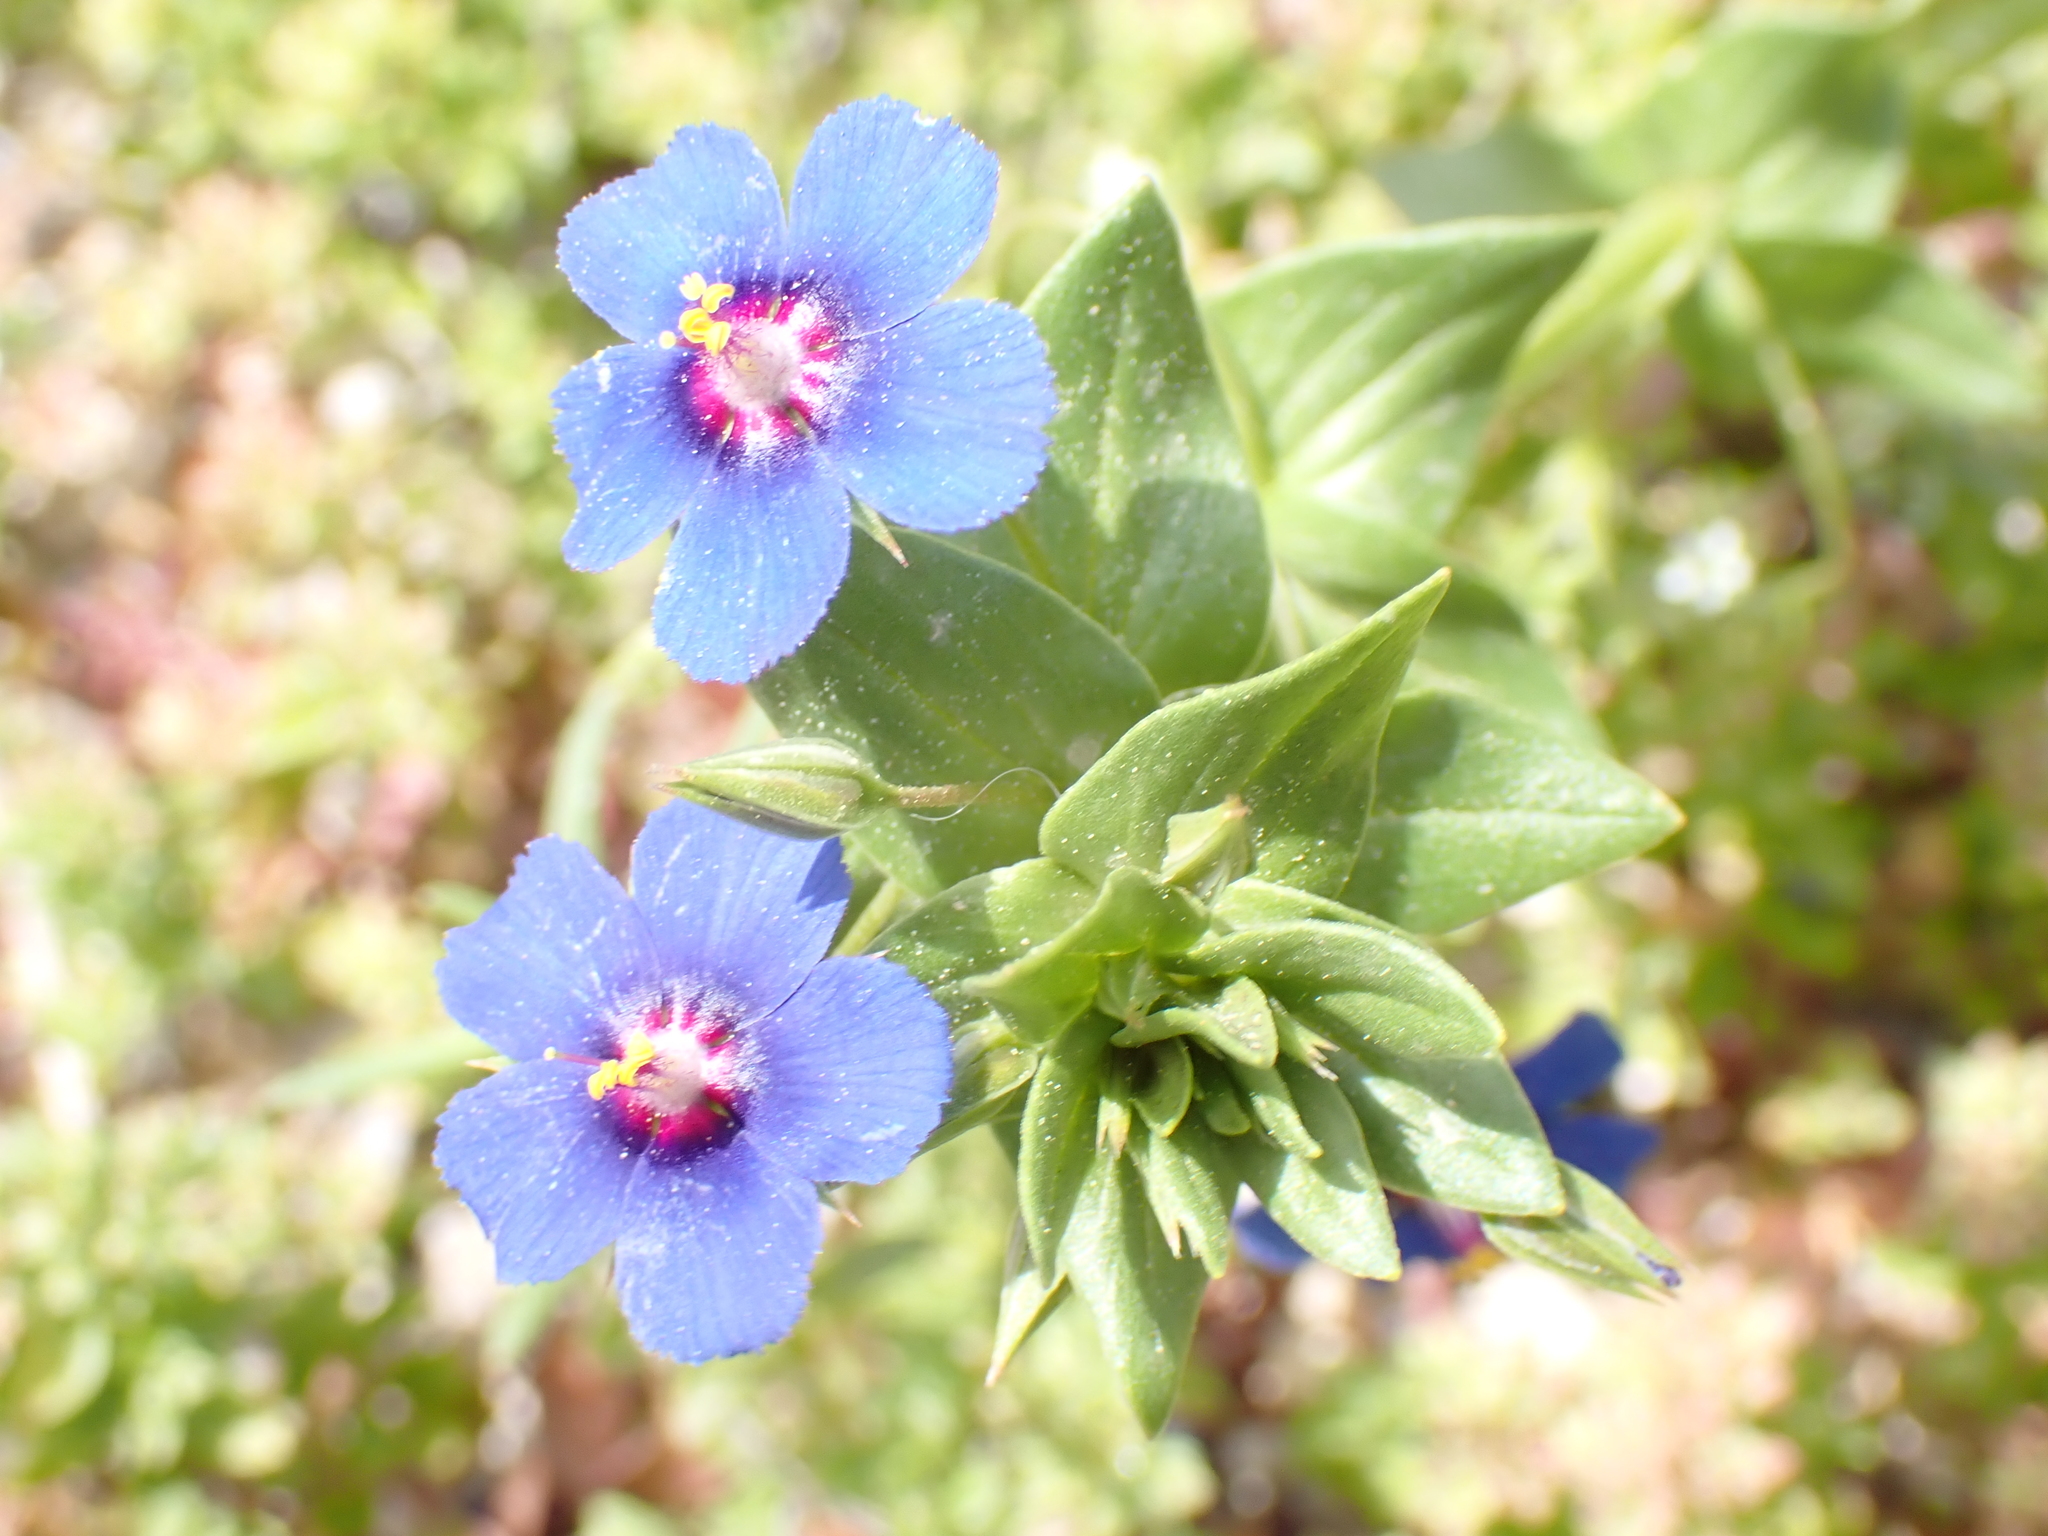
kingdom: Plantae
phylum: Tracheophyta
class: Magnoliopsida
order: Ericales
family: Primulaceae
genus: Lysimachia
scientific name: Lysimachia foemina
